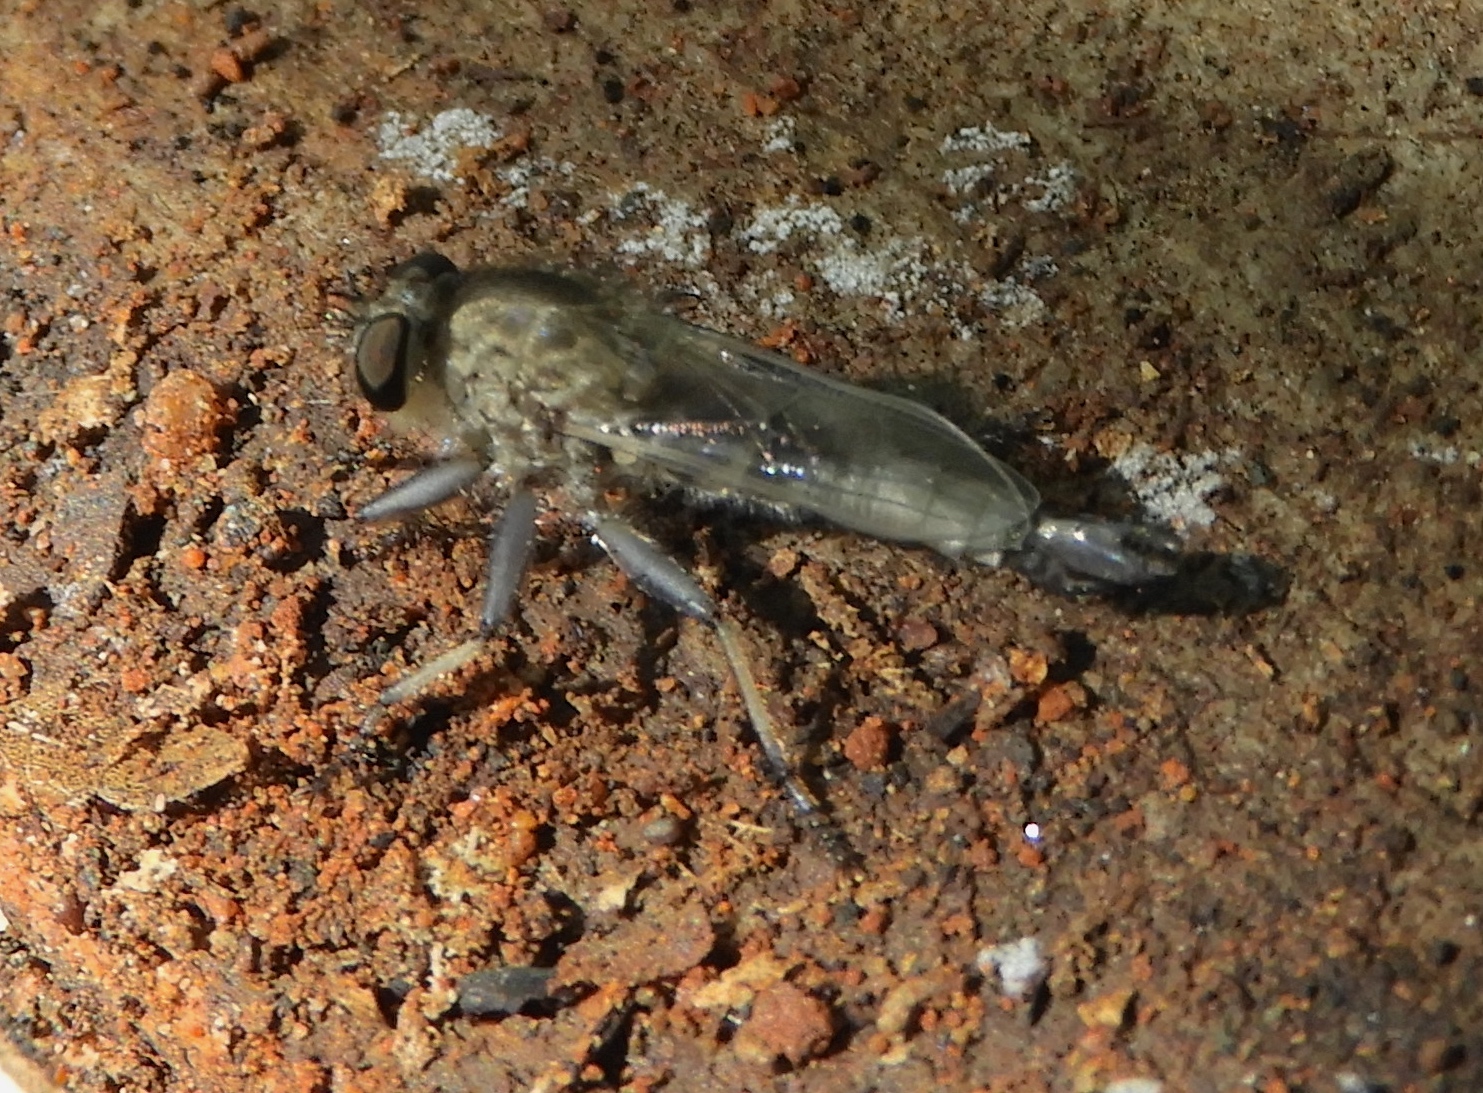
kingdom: Animalia
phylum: Arthropoda
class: Insecta
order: Diptera
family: Asilidae
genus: Efferia
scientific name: Efferia
